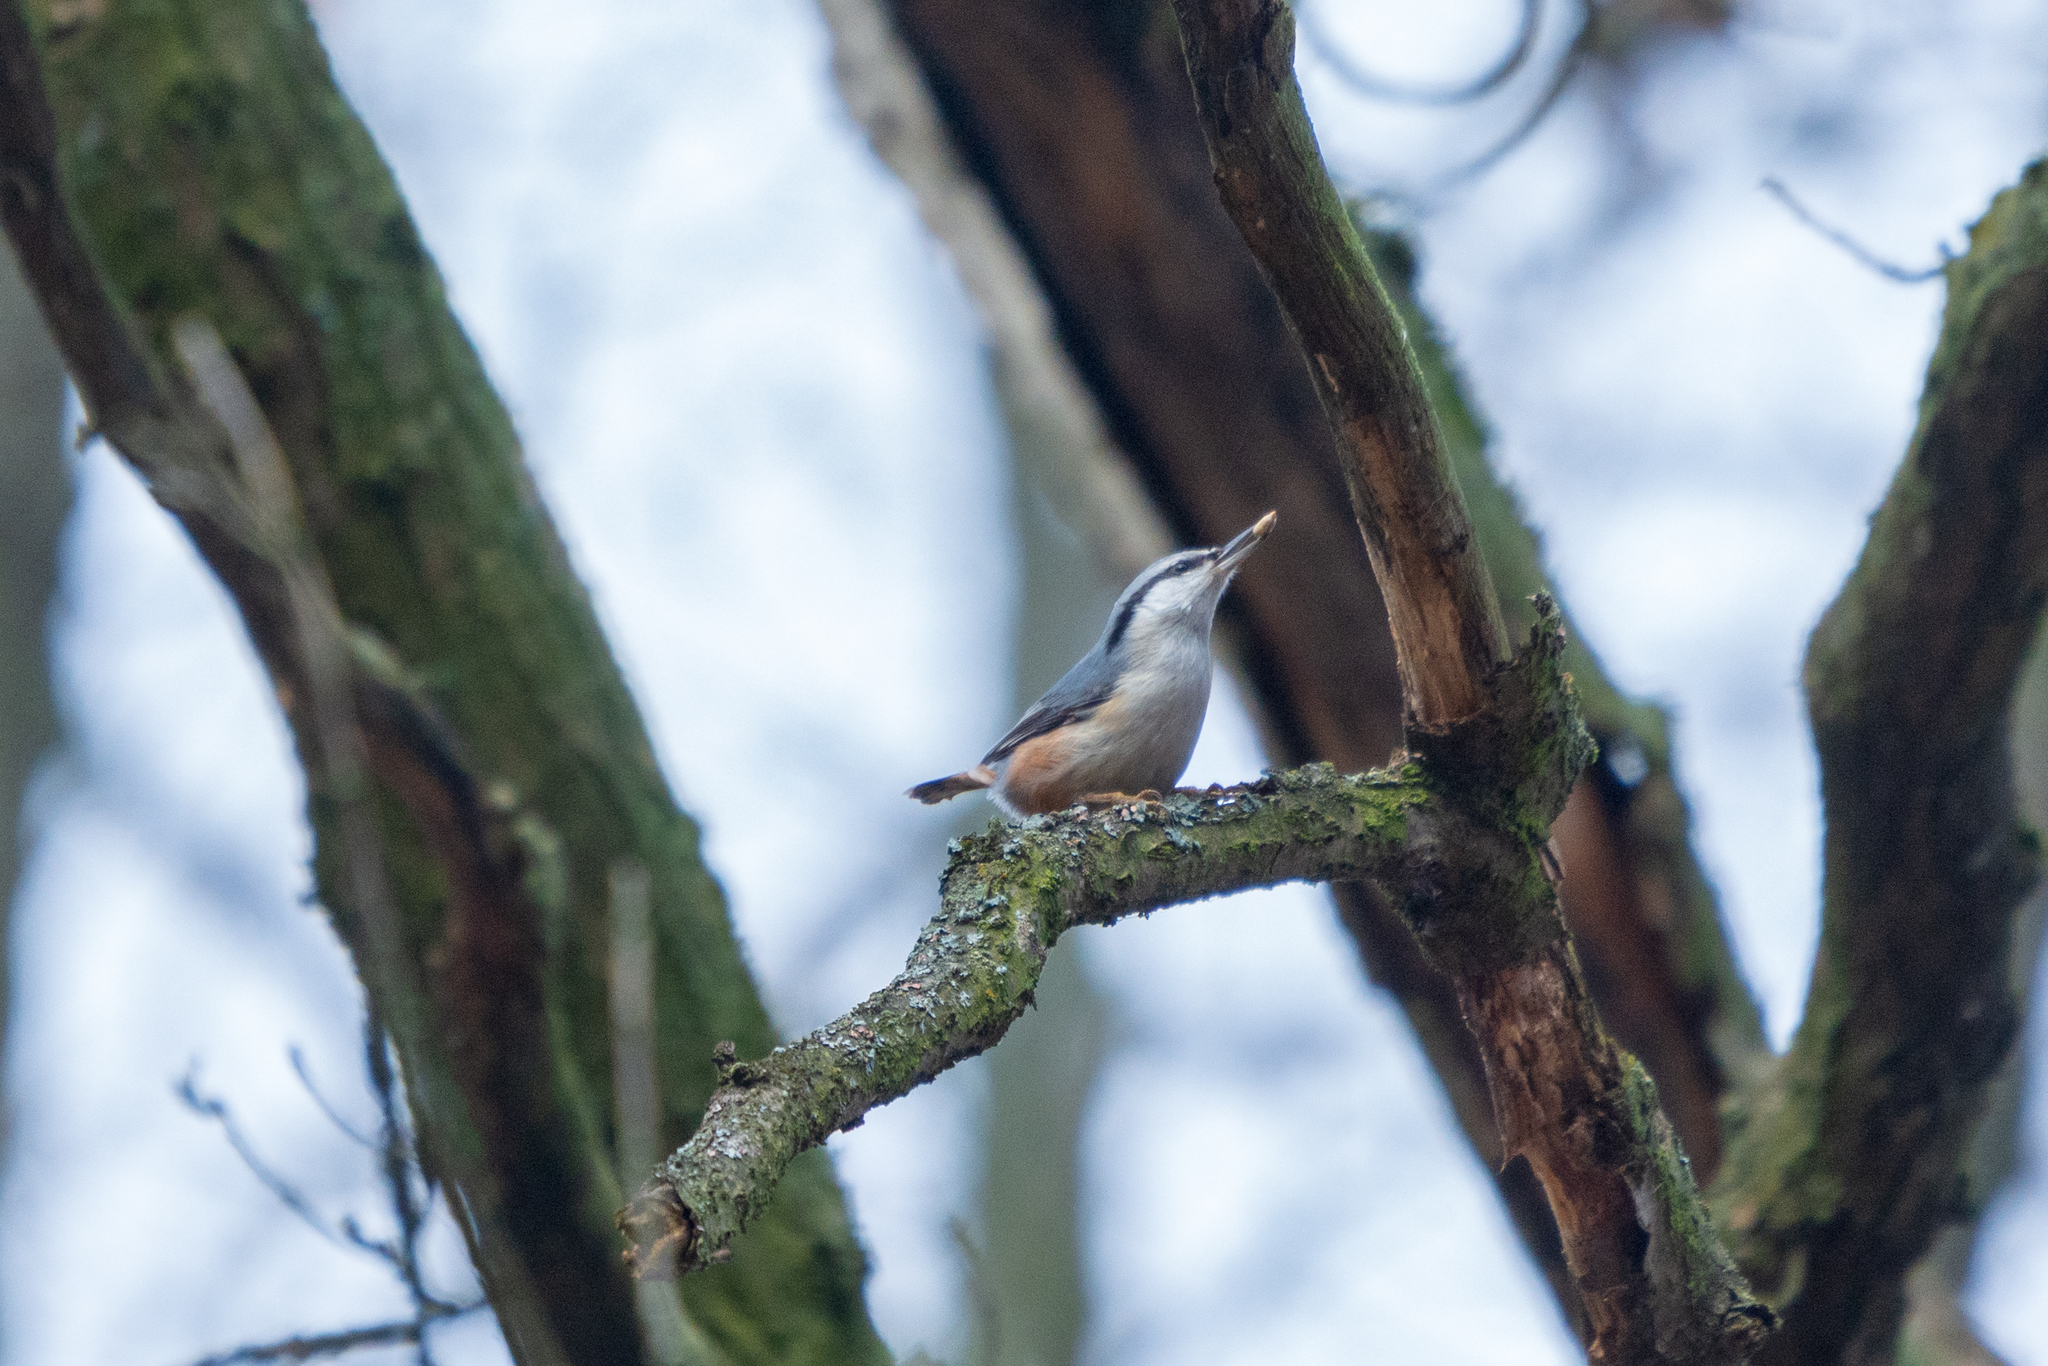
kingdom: Animalia
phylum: Chordata
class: Aves
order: Passeriformes
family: Sittidae
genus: Sitta
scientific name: Sitta europaea
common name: Eurasian nuthatch
